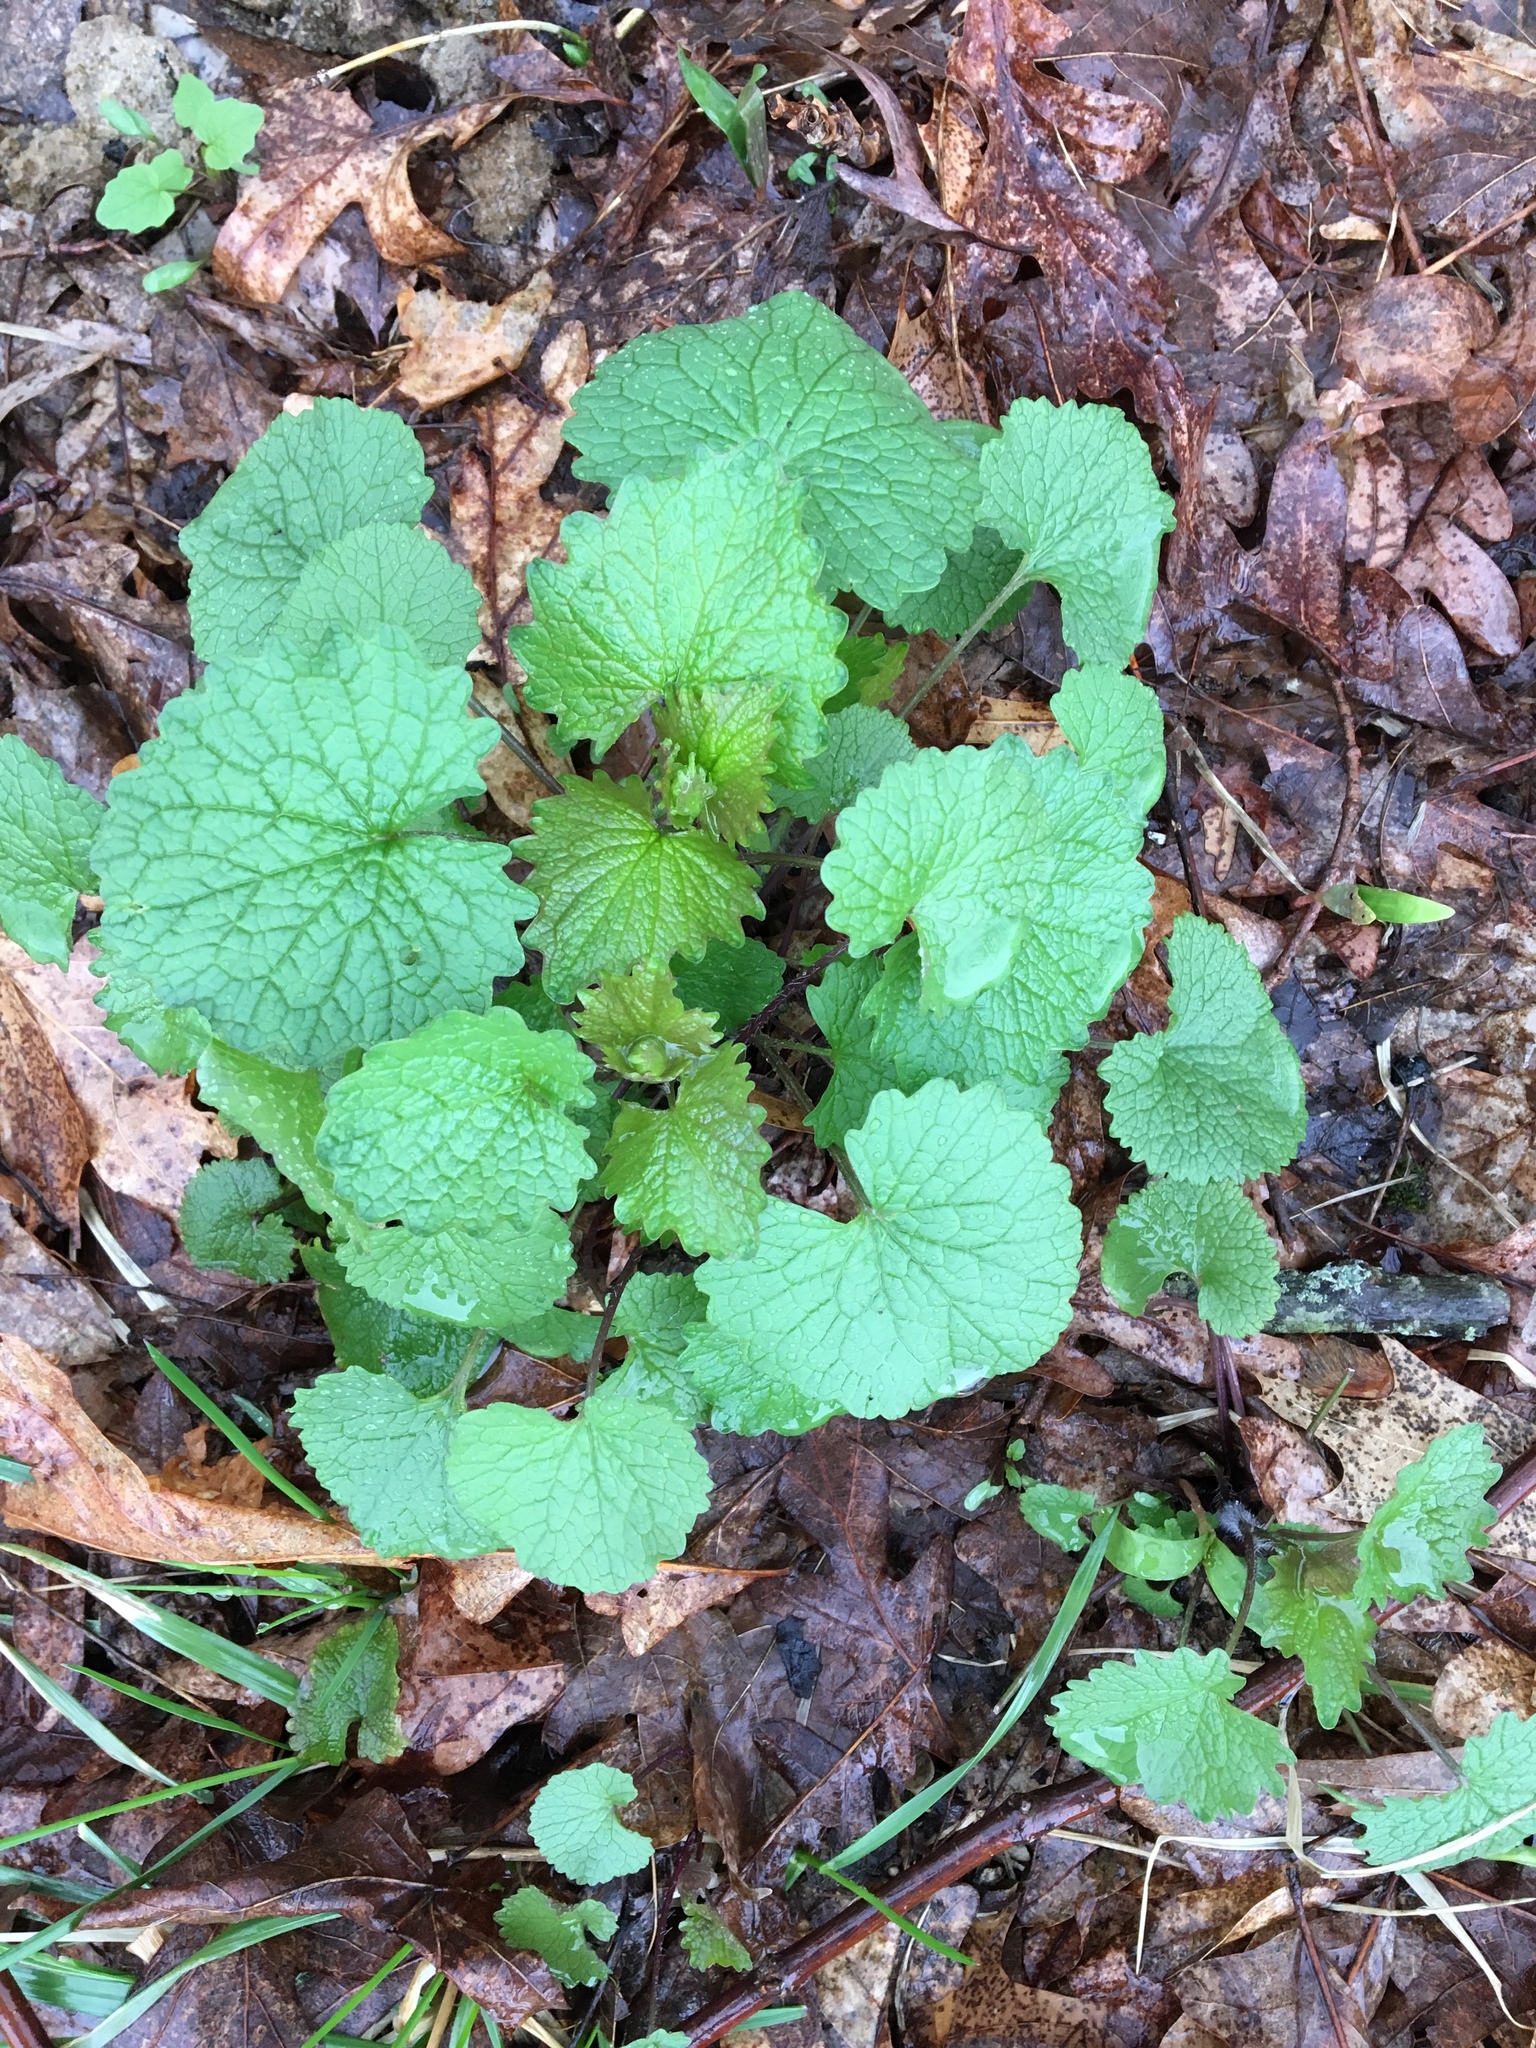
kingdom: Plantae
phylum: Tracheophyta
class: Magnoliopsida
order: Brassicales
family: Brassicaceae
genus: Alliaria
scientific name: Alliaria petiolata
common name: Garlic mustard
